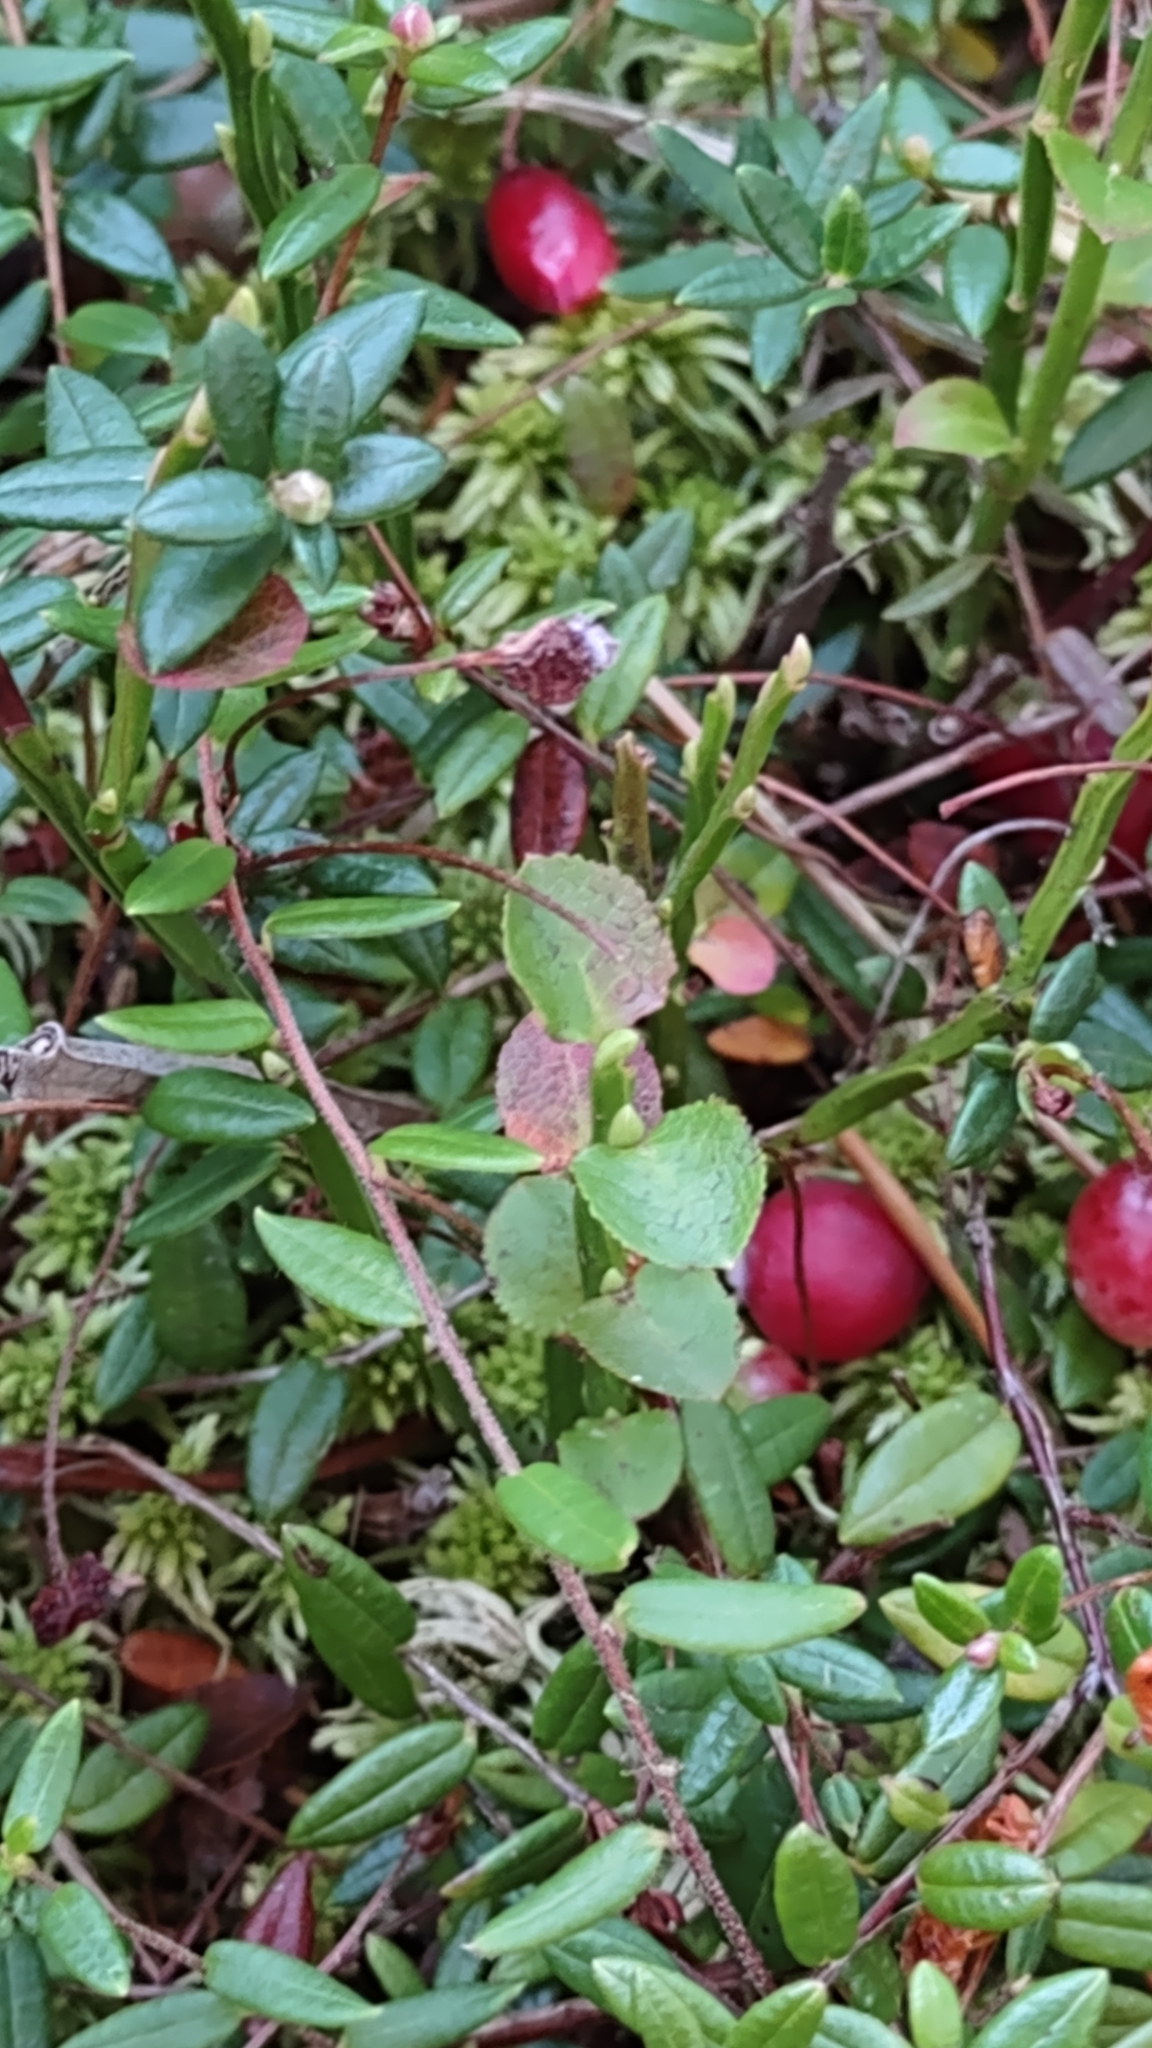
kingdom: Plantae
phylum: Tracheophyta
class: Magnoliopsida
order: Ericales
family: Ericaceae
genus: Vaccinium
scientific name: Vaccinium vitis-idaea
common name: Cowberry
